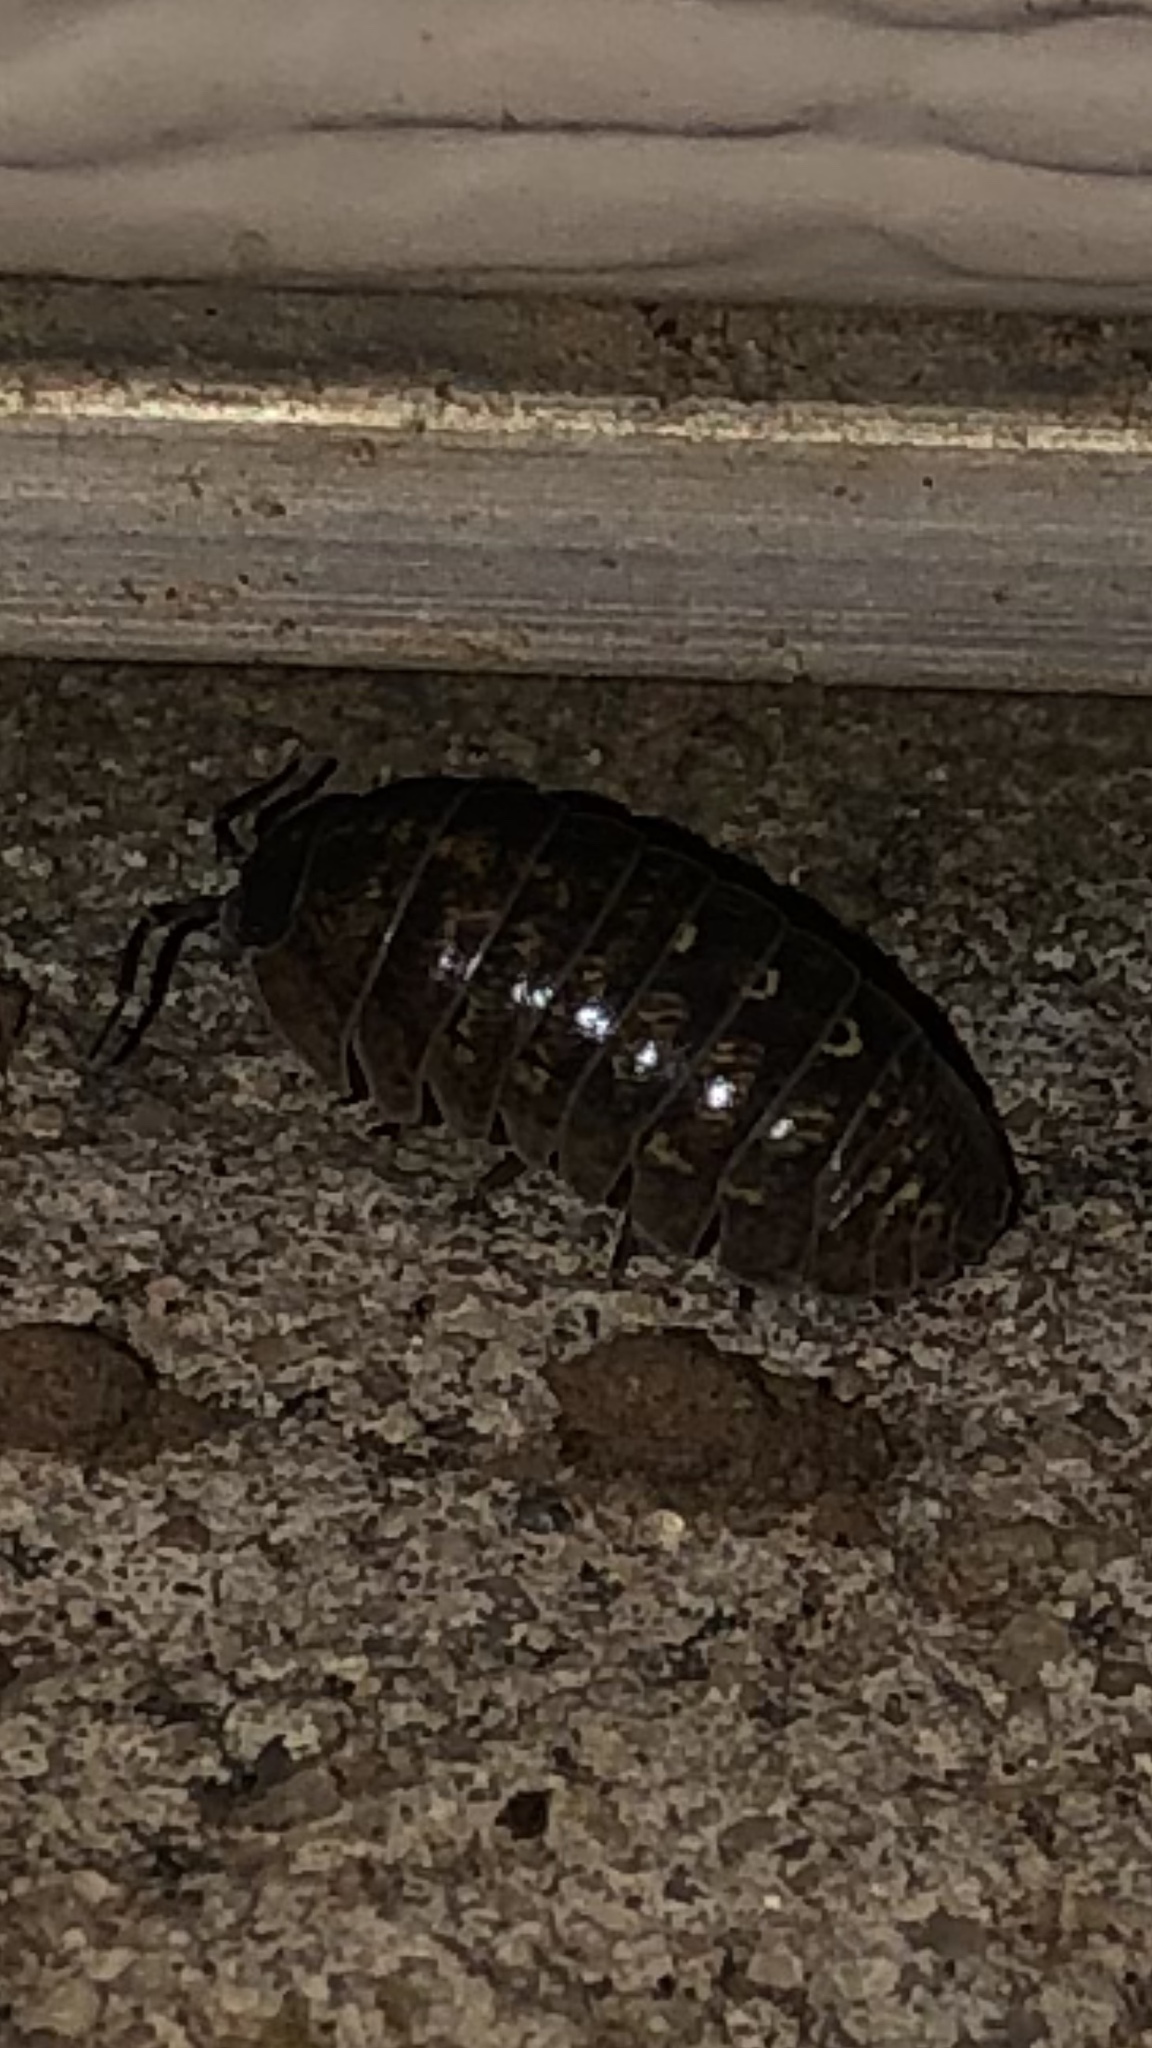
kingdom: Animalia
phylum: Arthropoda
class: Malacostraca
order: Isopoda
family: Armadillidiidae
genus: Armadillidium
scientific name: Armadillidium vulgare
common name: Common pill woodlouse
